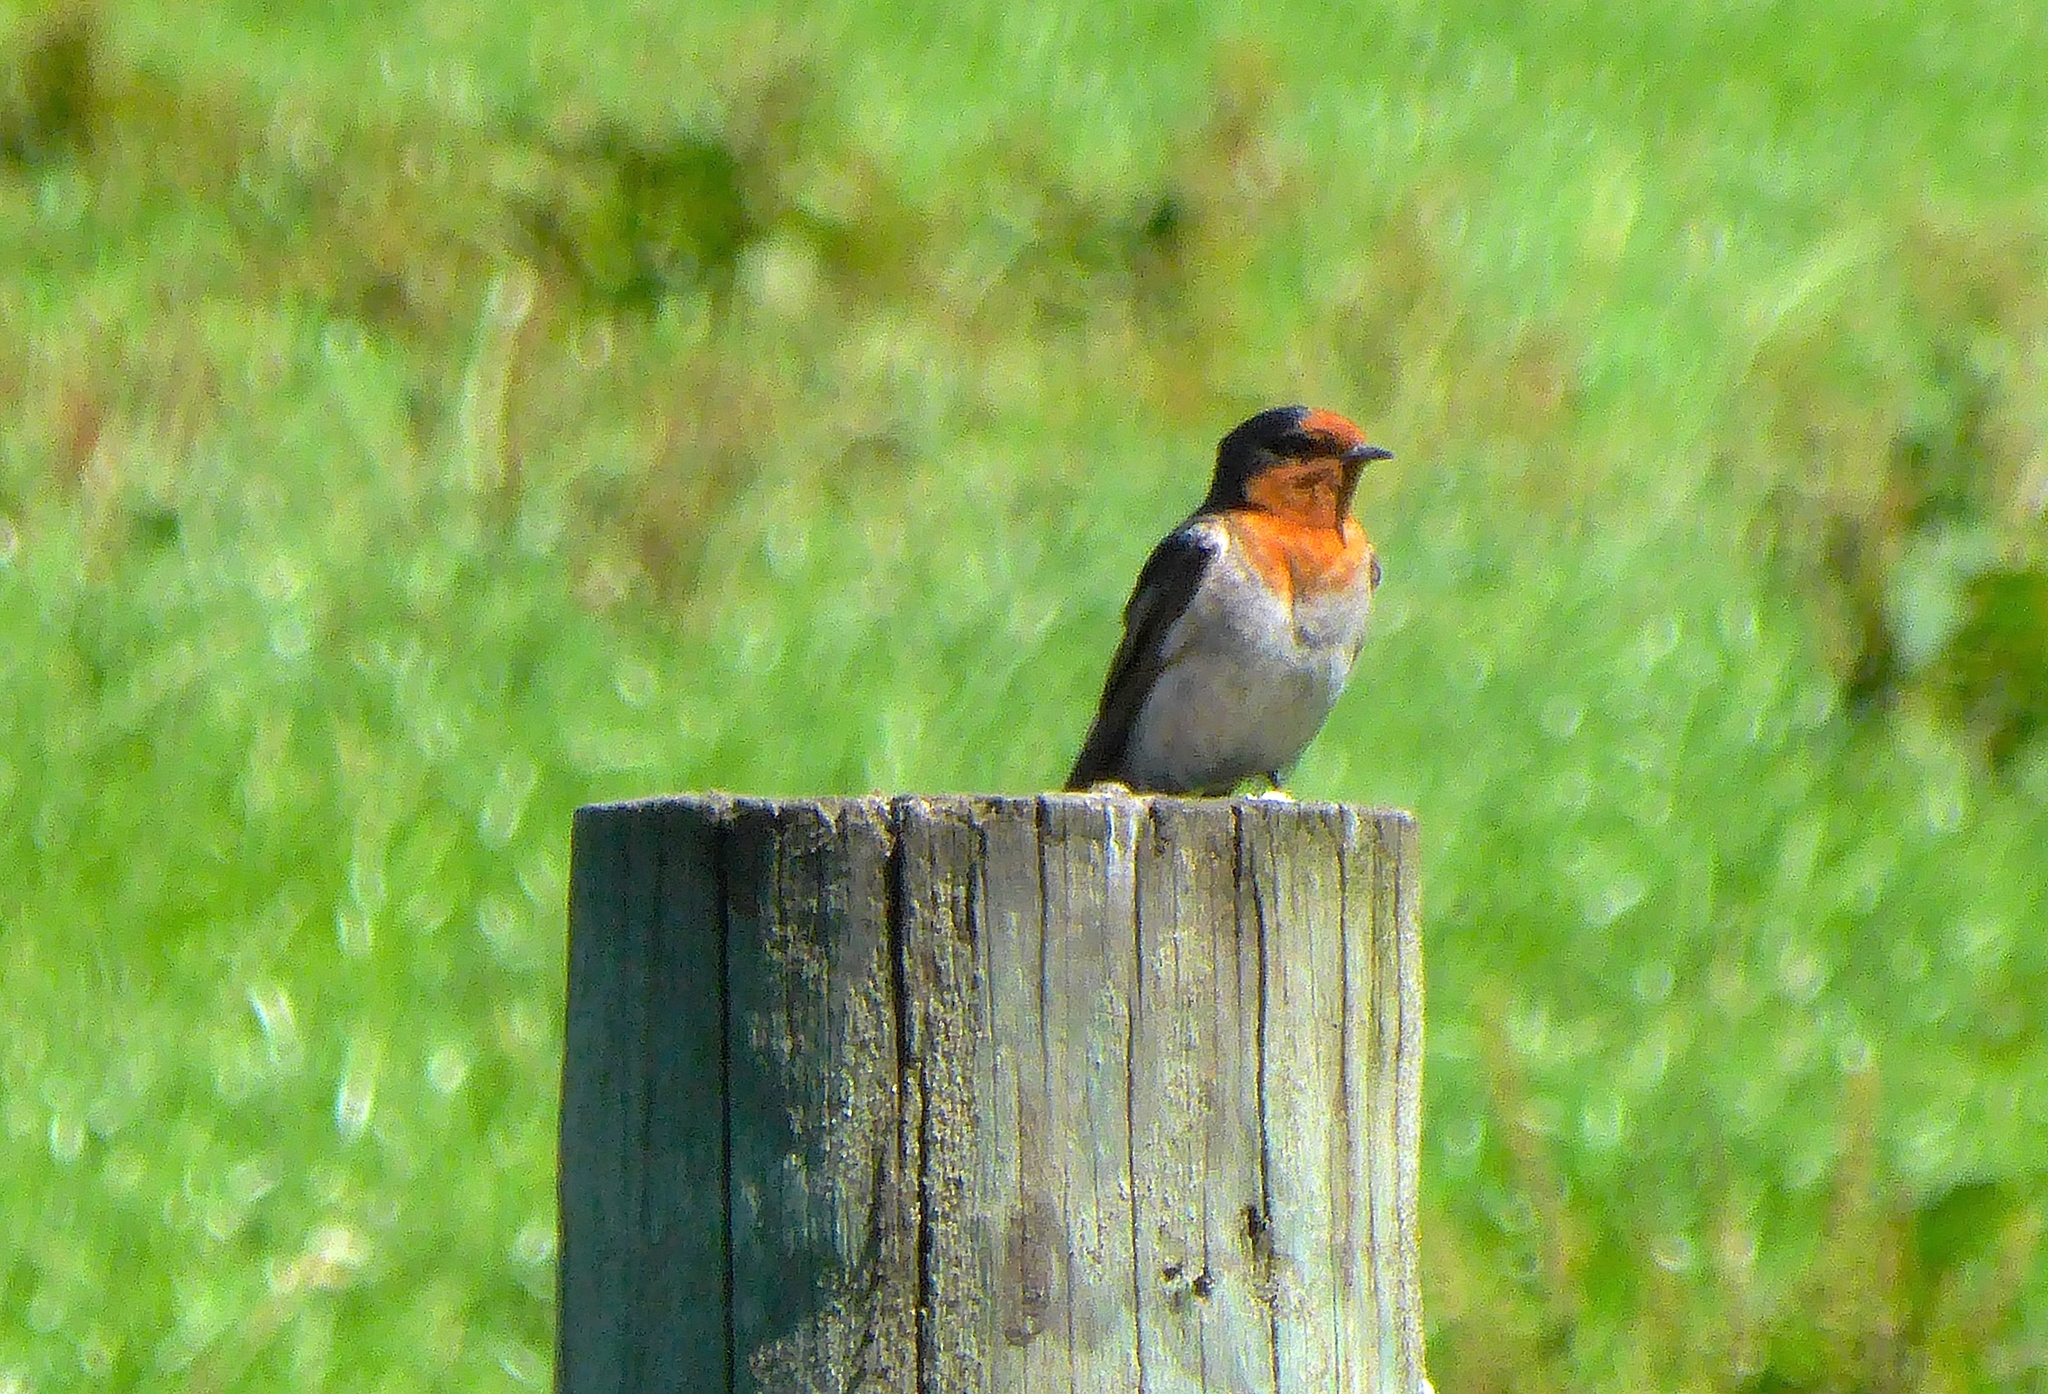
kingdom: Animalia
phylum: Chordata
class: Aves
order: Passeriformes
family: Hirundinidae
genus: Hirundo
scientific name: Hirundo neoxena
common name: Welcome swallow
